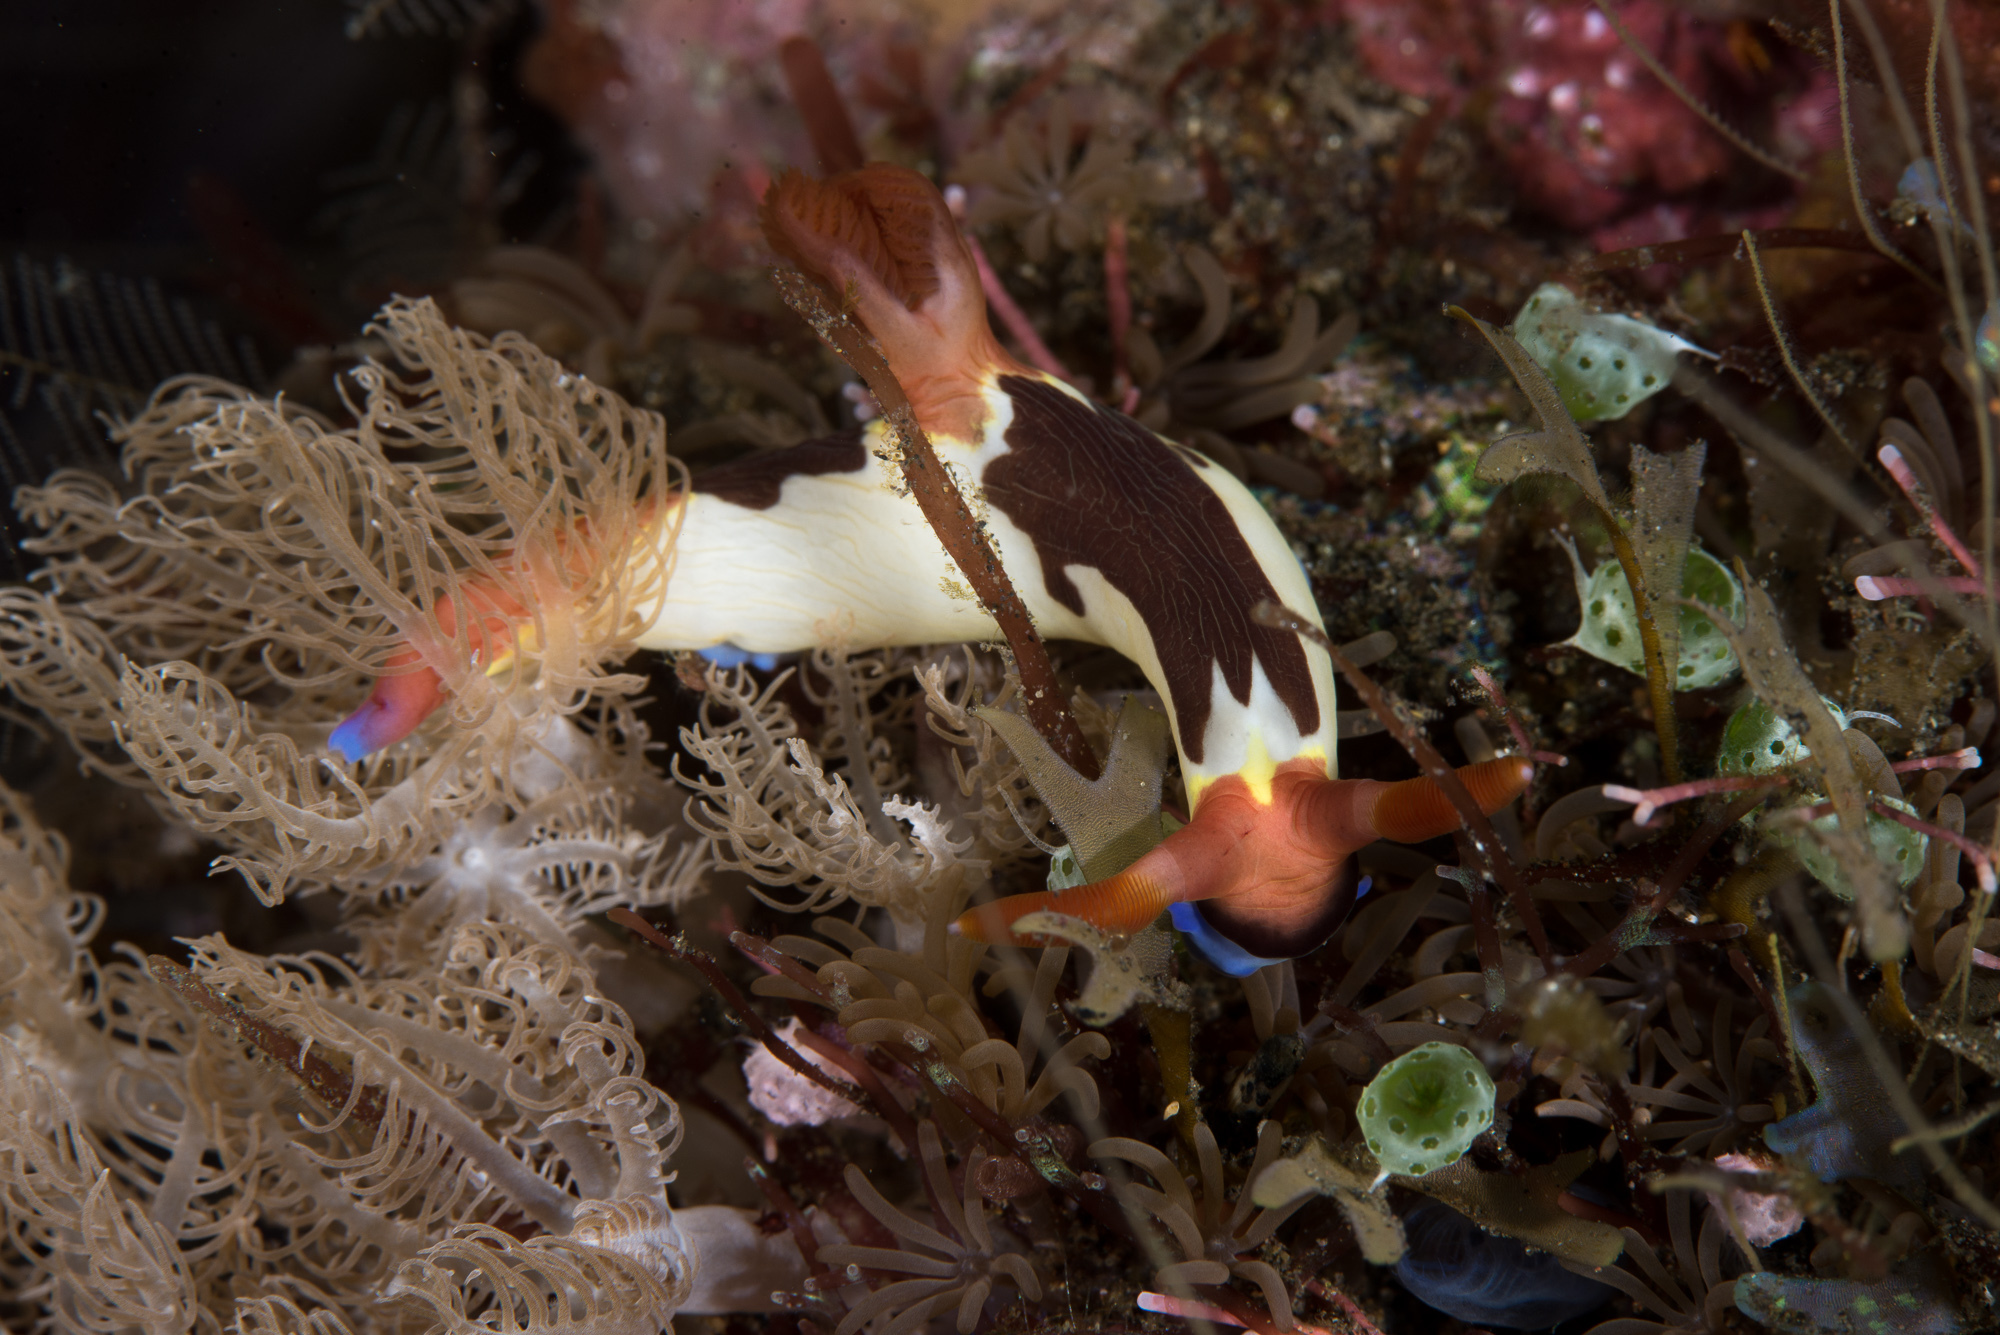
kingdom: Animalia
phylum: Mollusca
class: Gastropoda
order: Nudibranchia
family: Polyceridae
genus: Nembrotha
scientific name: Nembrotha chamberlaini
